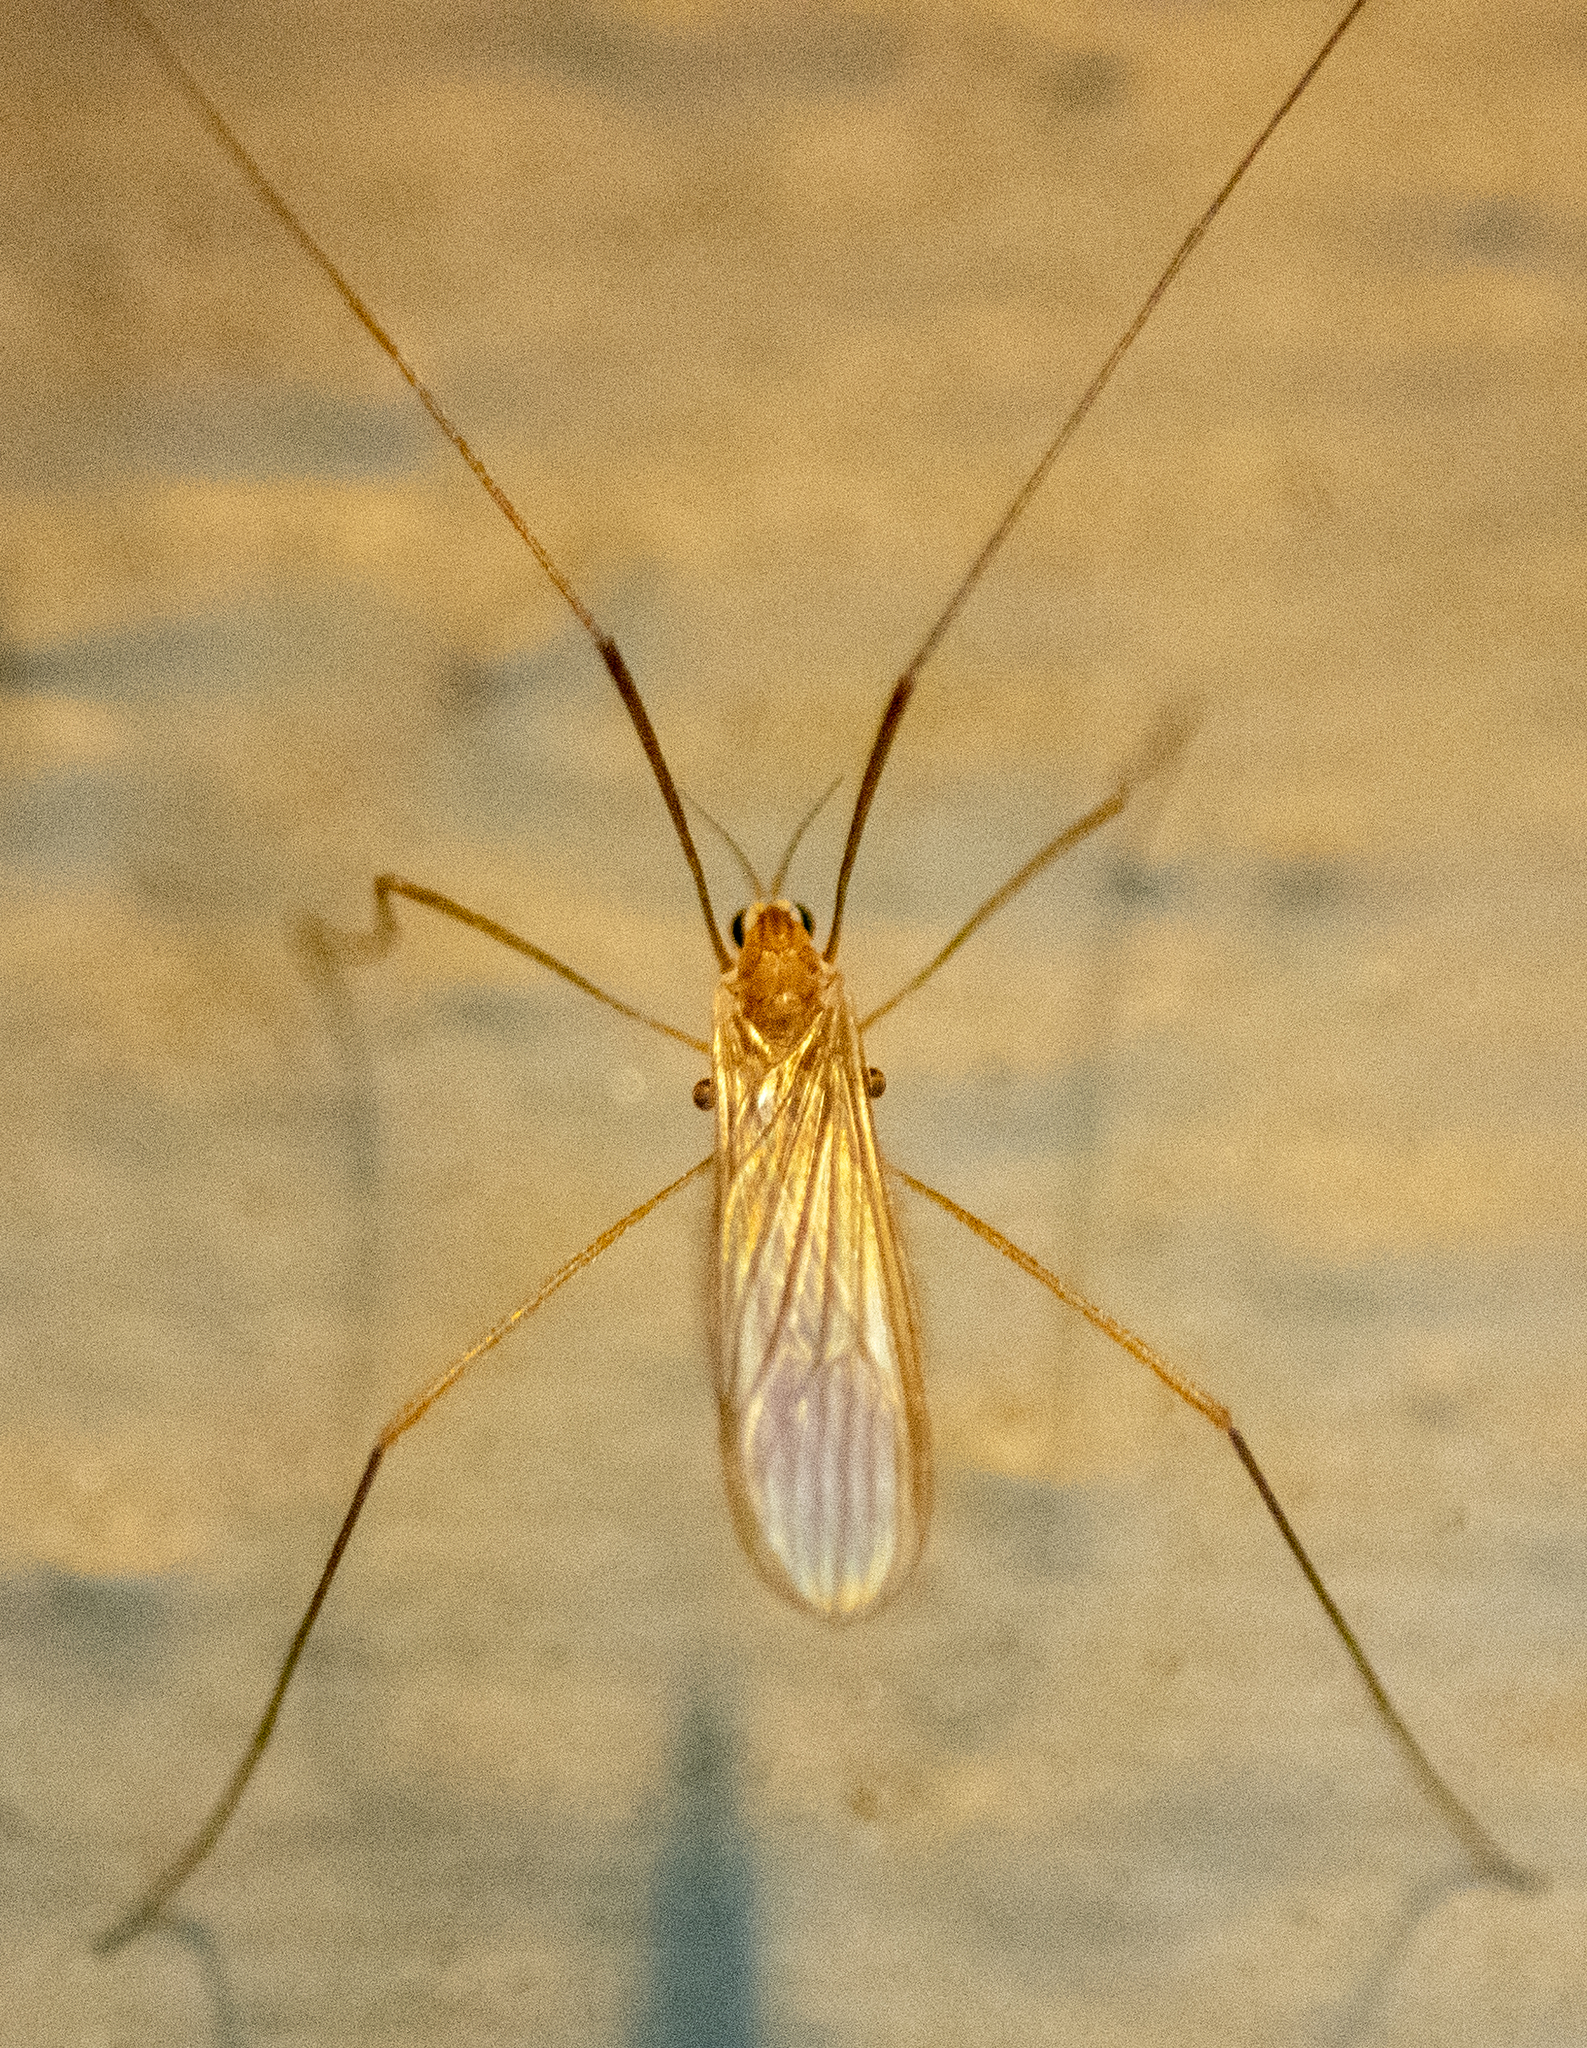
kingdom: Animalia
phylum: Arthropoda
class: Insecta
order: Diptera
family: Limoniidae
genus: Erioptera
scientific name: Erioptera septemtrionis
